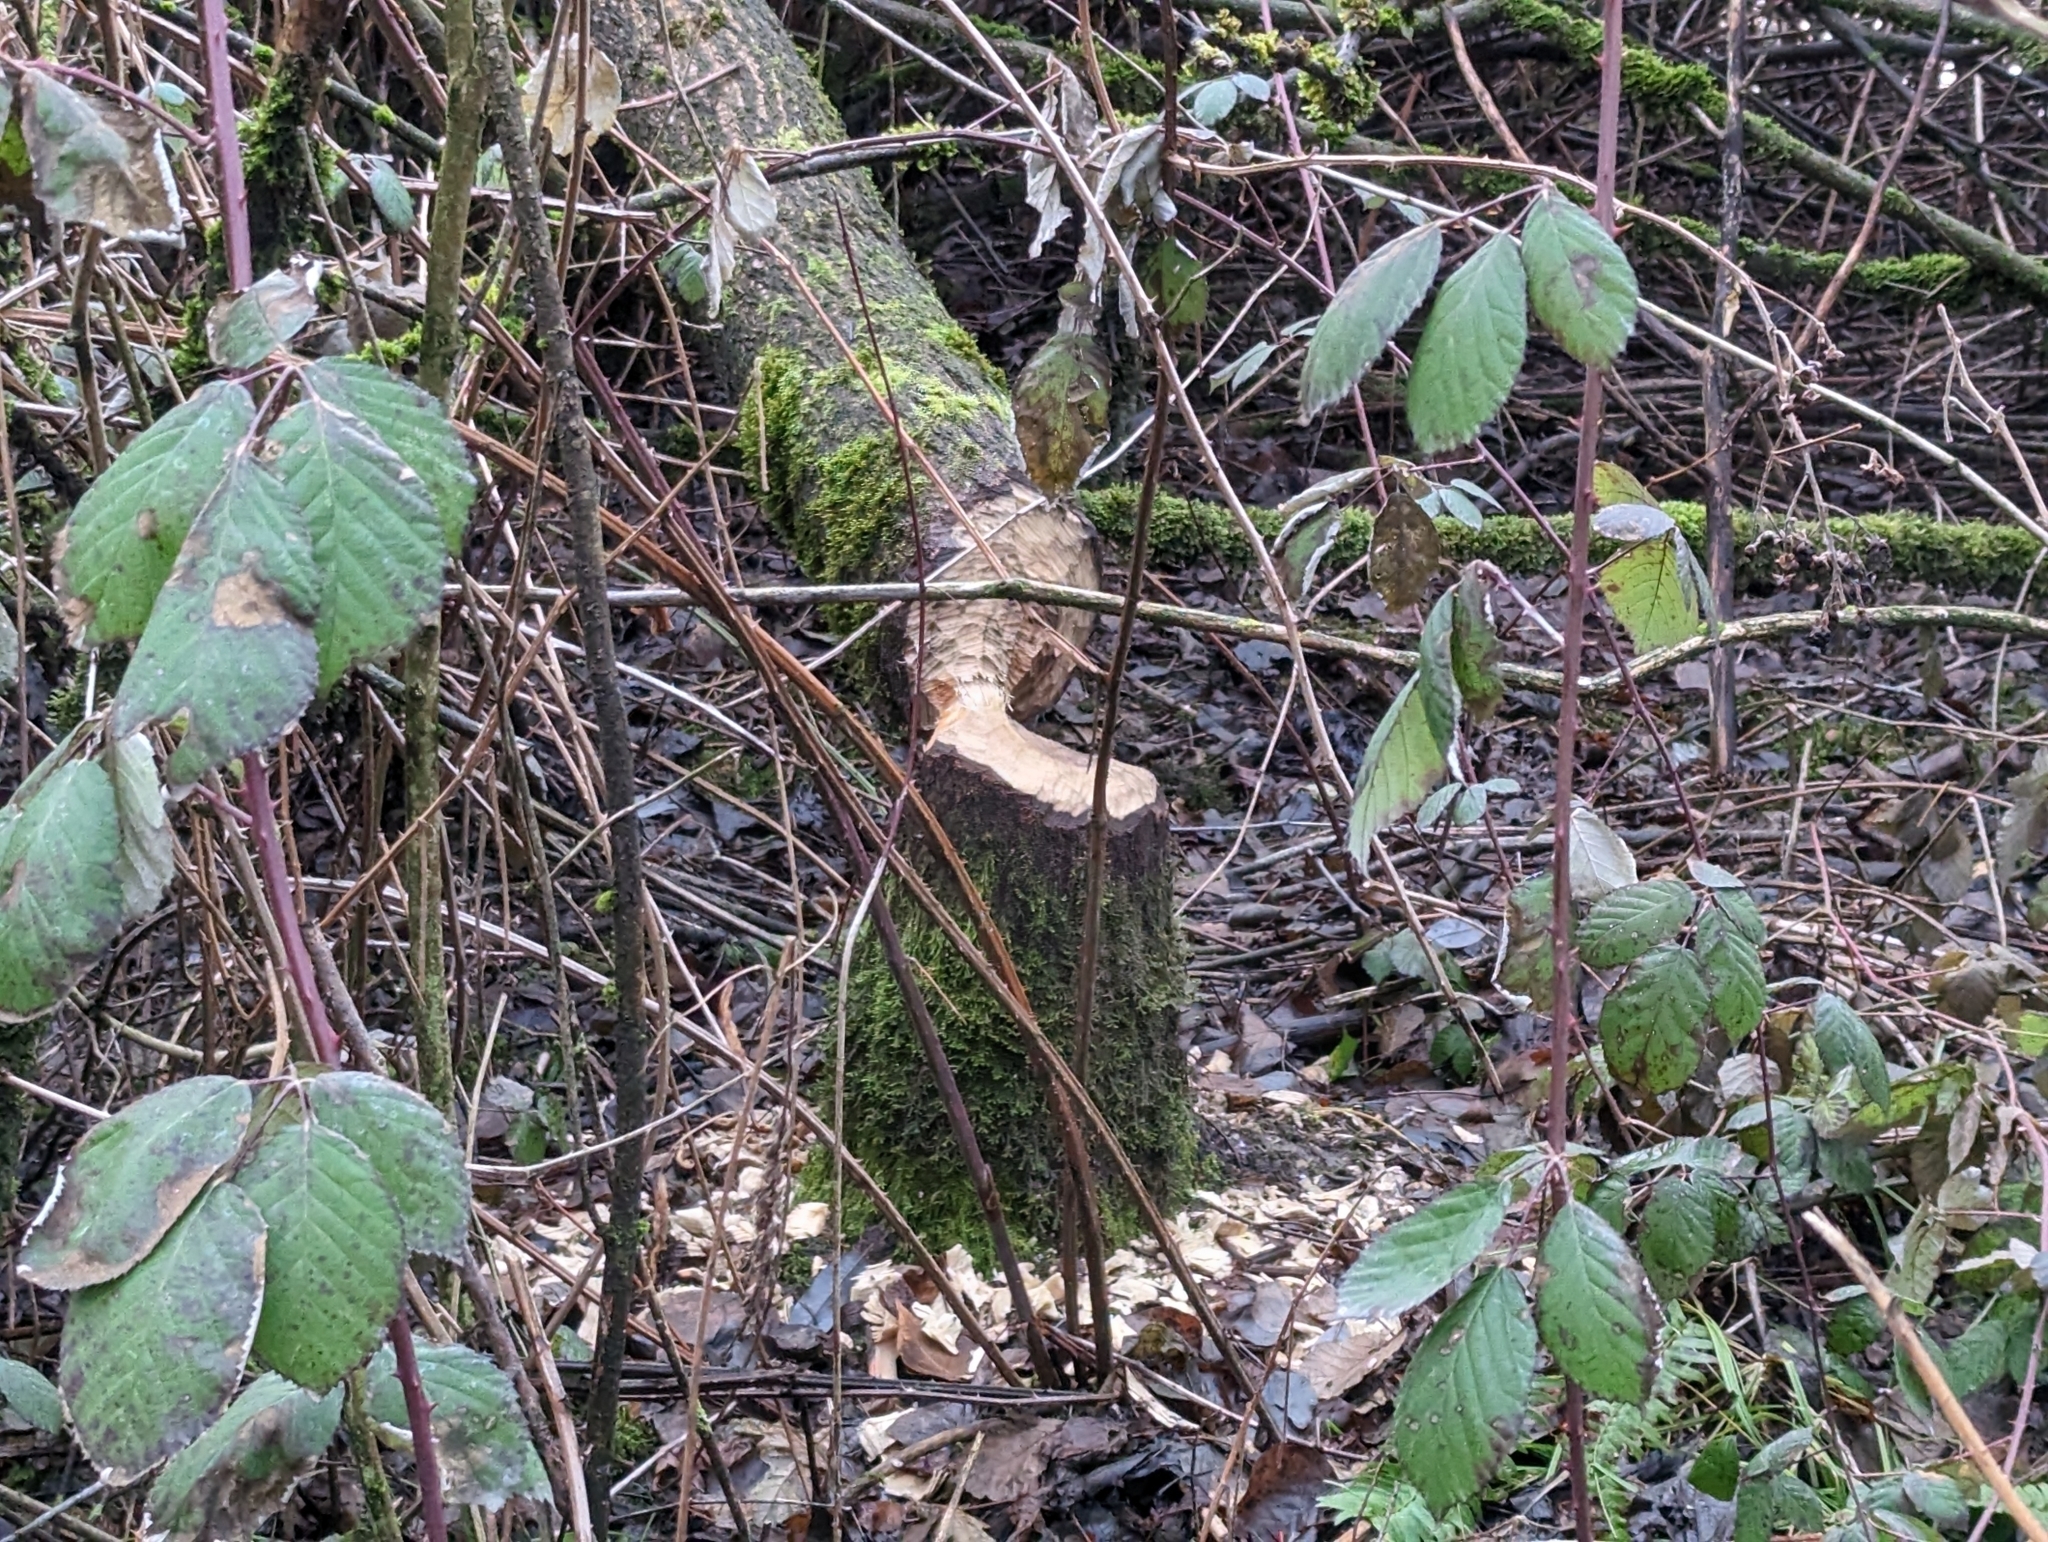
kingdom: Animalia
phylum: Chordata
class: Mammalia
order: Rodentia
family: Castoridae
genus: Castor
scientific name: Castor canadensis
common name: American beaver
